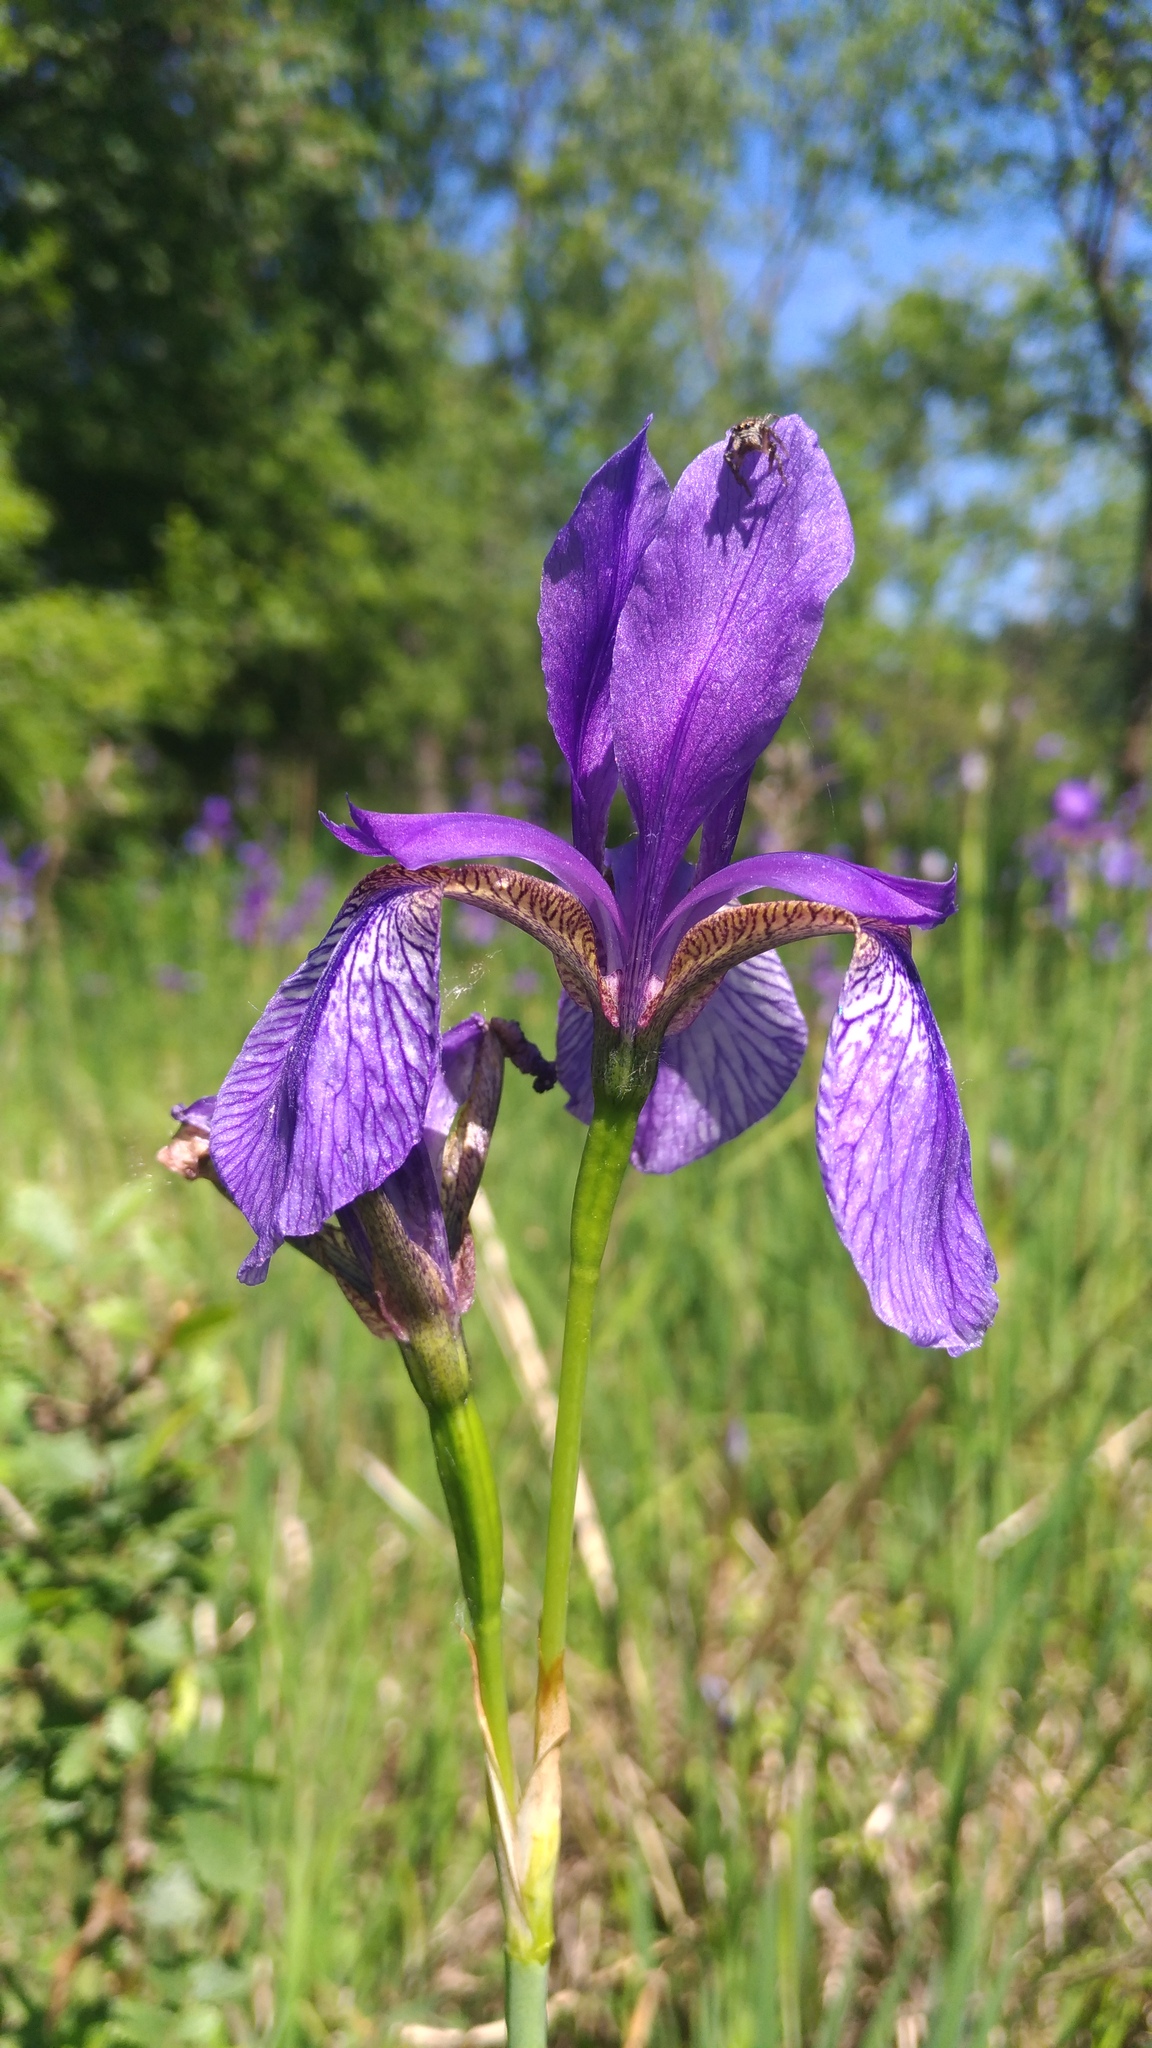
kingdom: Plantae
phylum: Tracheophyta
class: Liliopsida
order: Asparagales
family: Iridaceae
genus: Iris
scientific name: Iris sibirica
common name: Siberian iris
